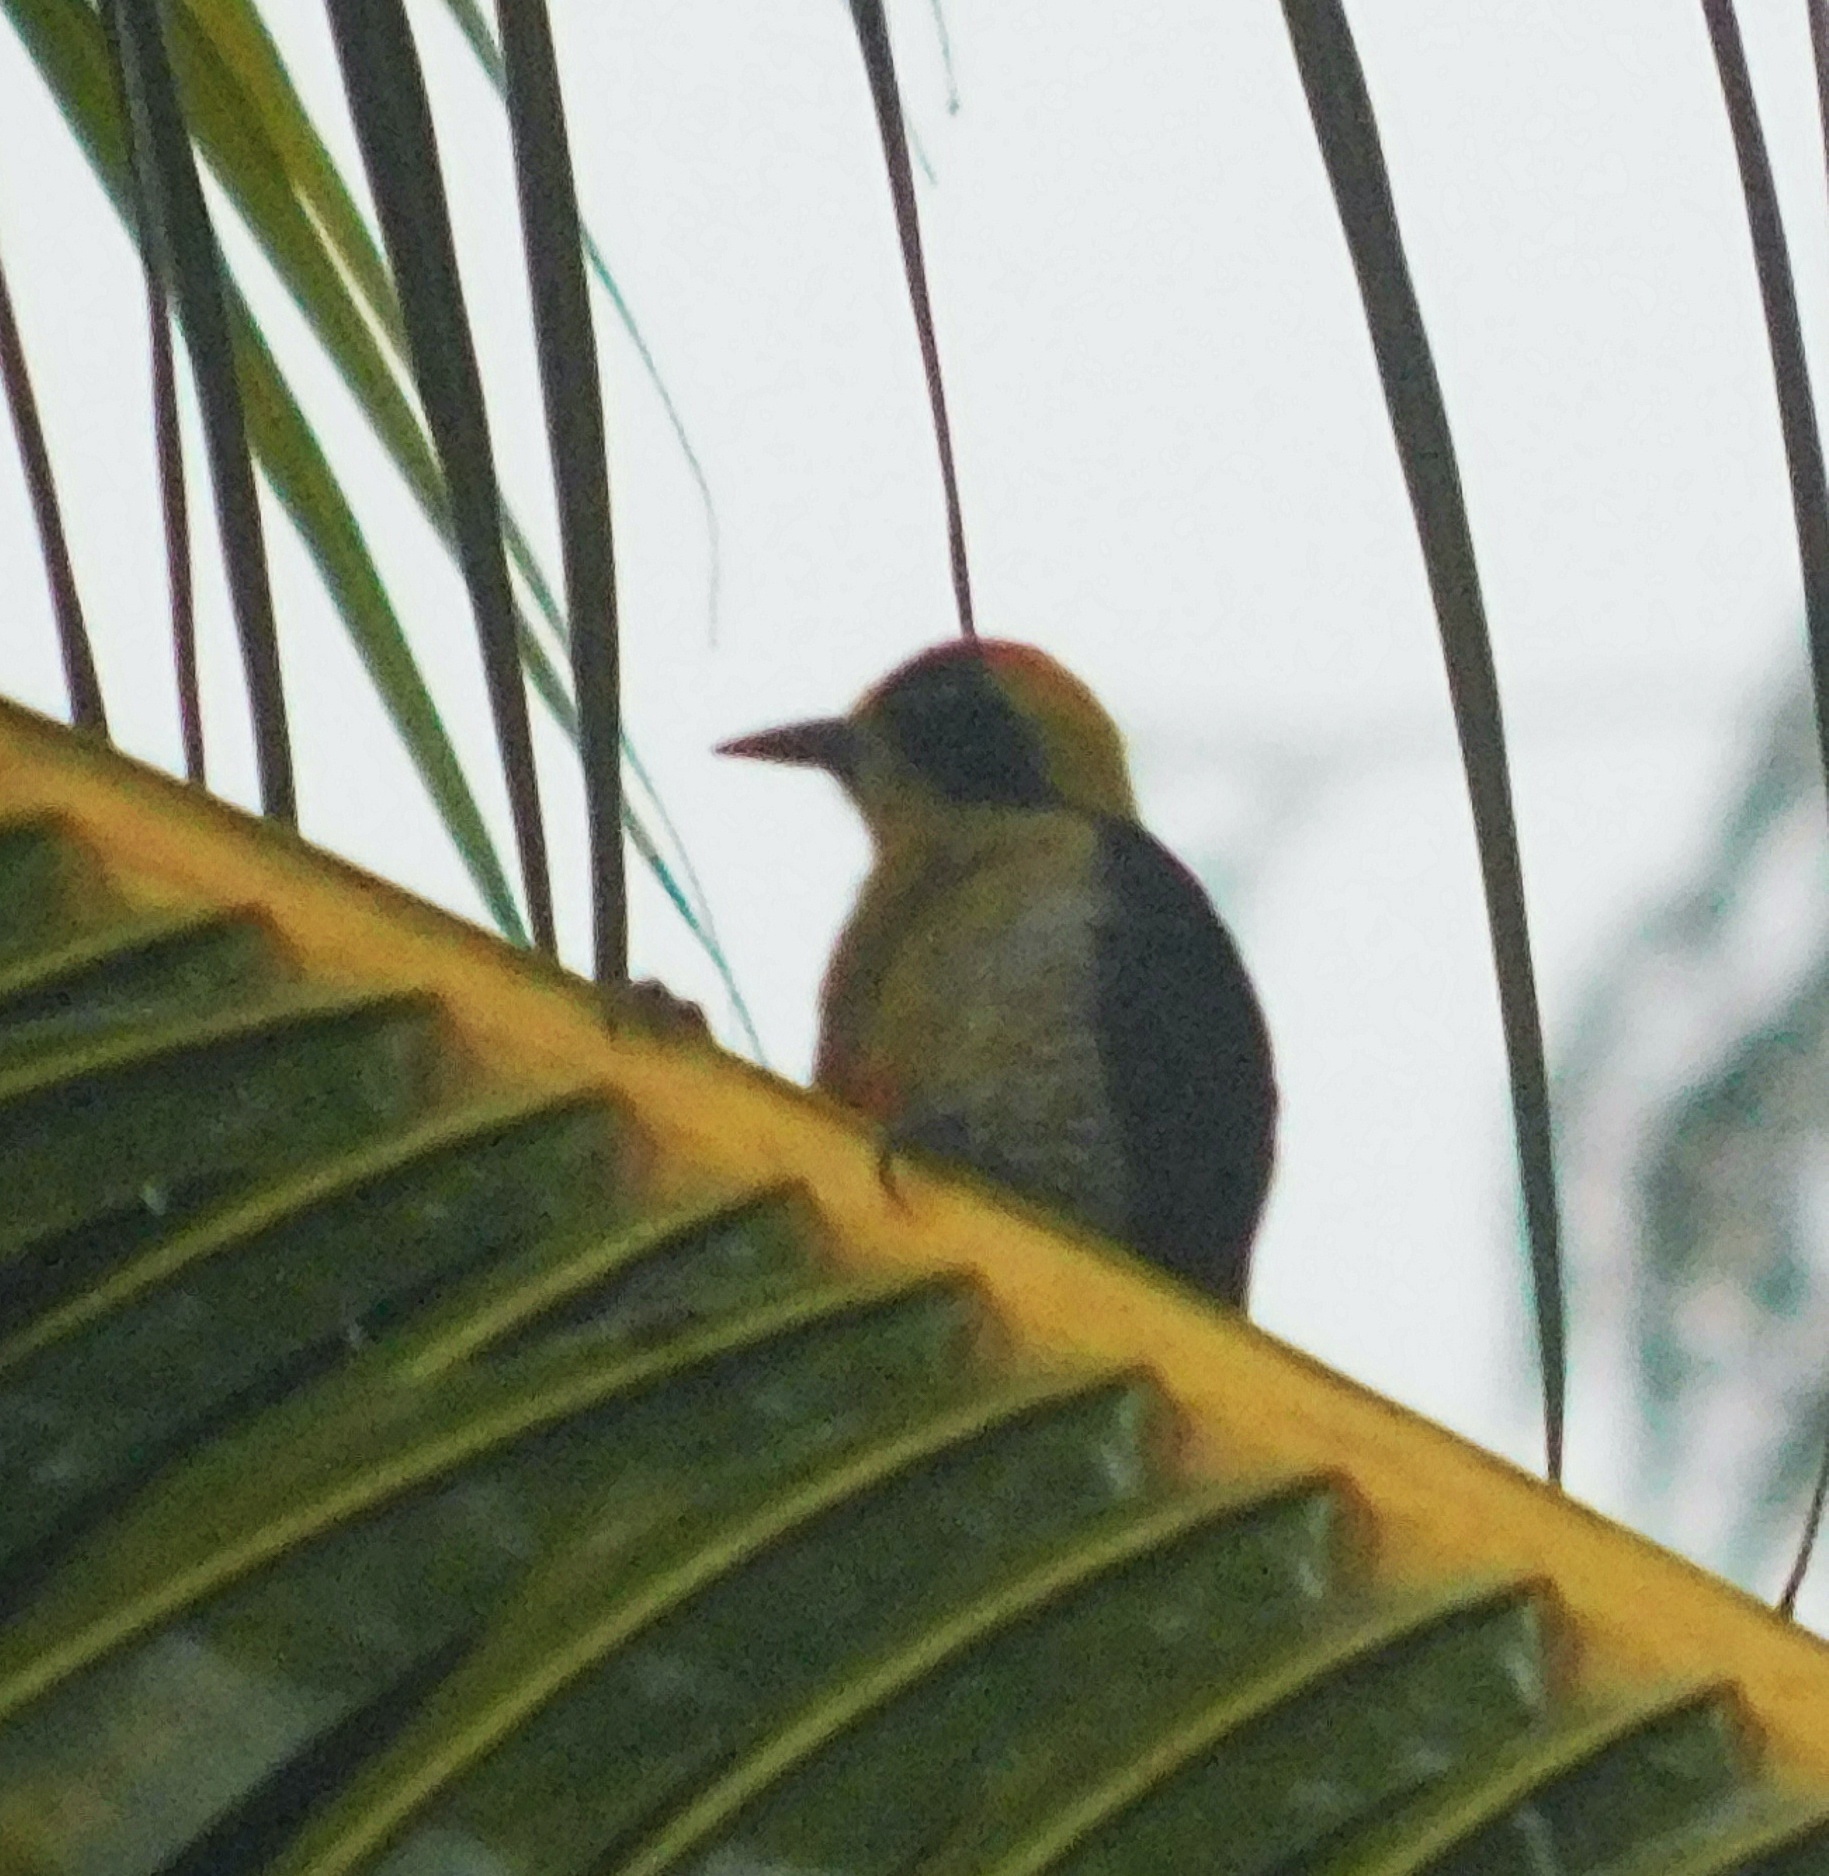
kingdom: Animalia
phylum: Chordata
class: Aves
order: Piciformes
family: Picidae
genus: Melanerpes
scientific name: Melanerpes chrysauchen
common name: Golden-naped woodpecker
